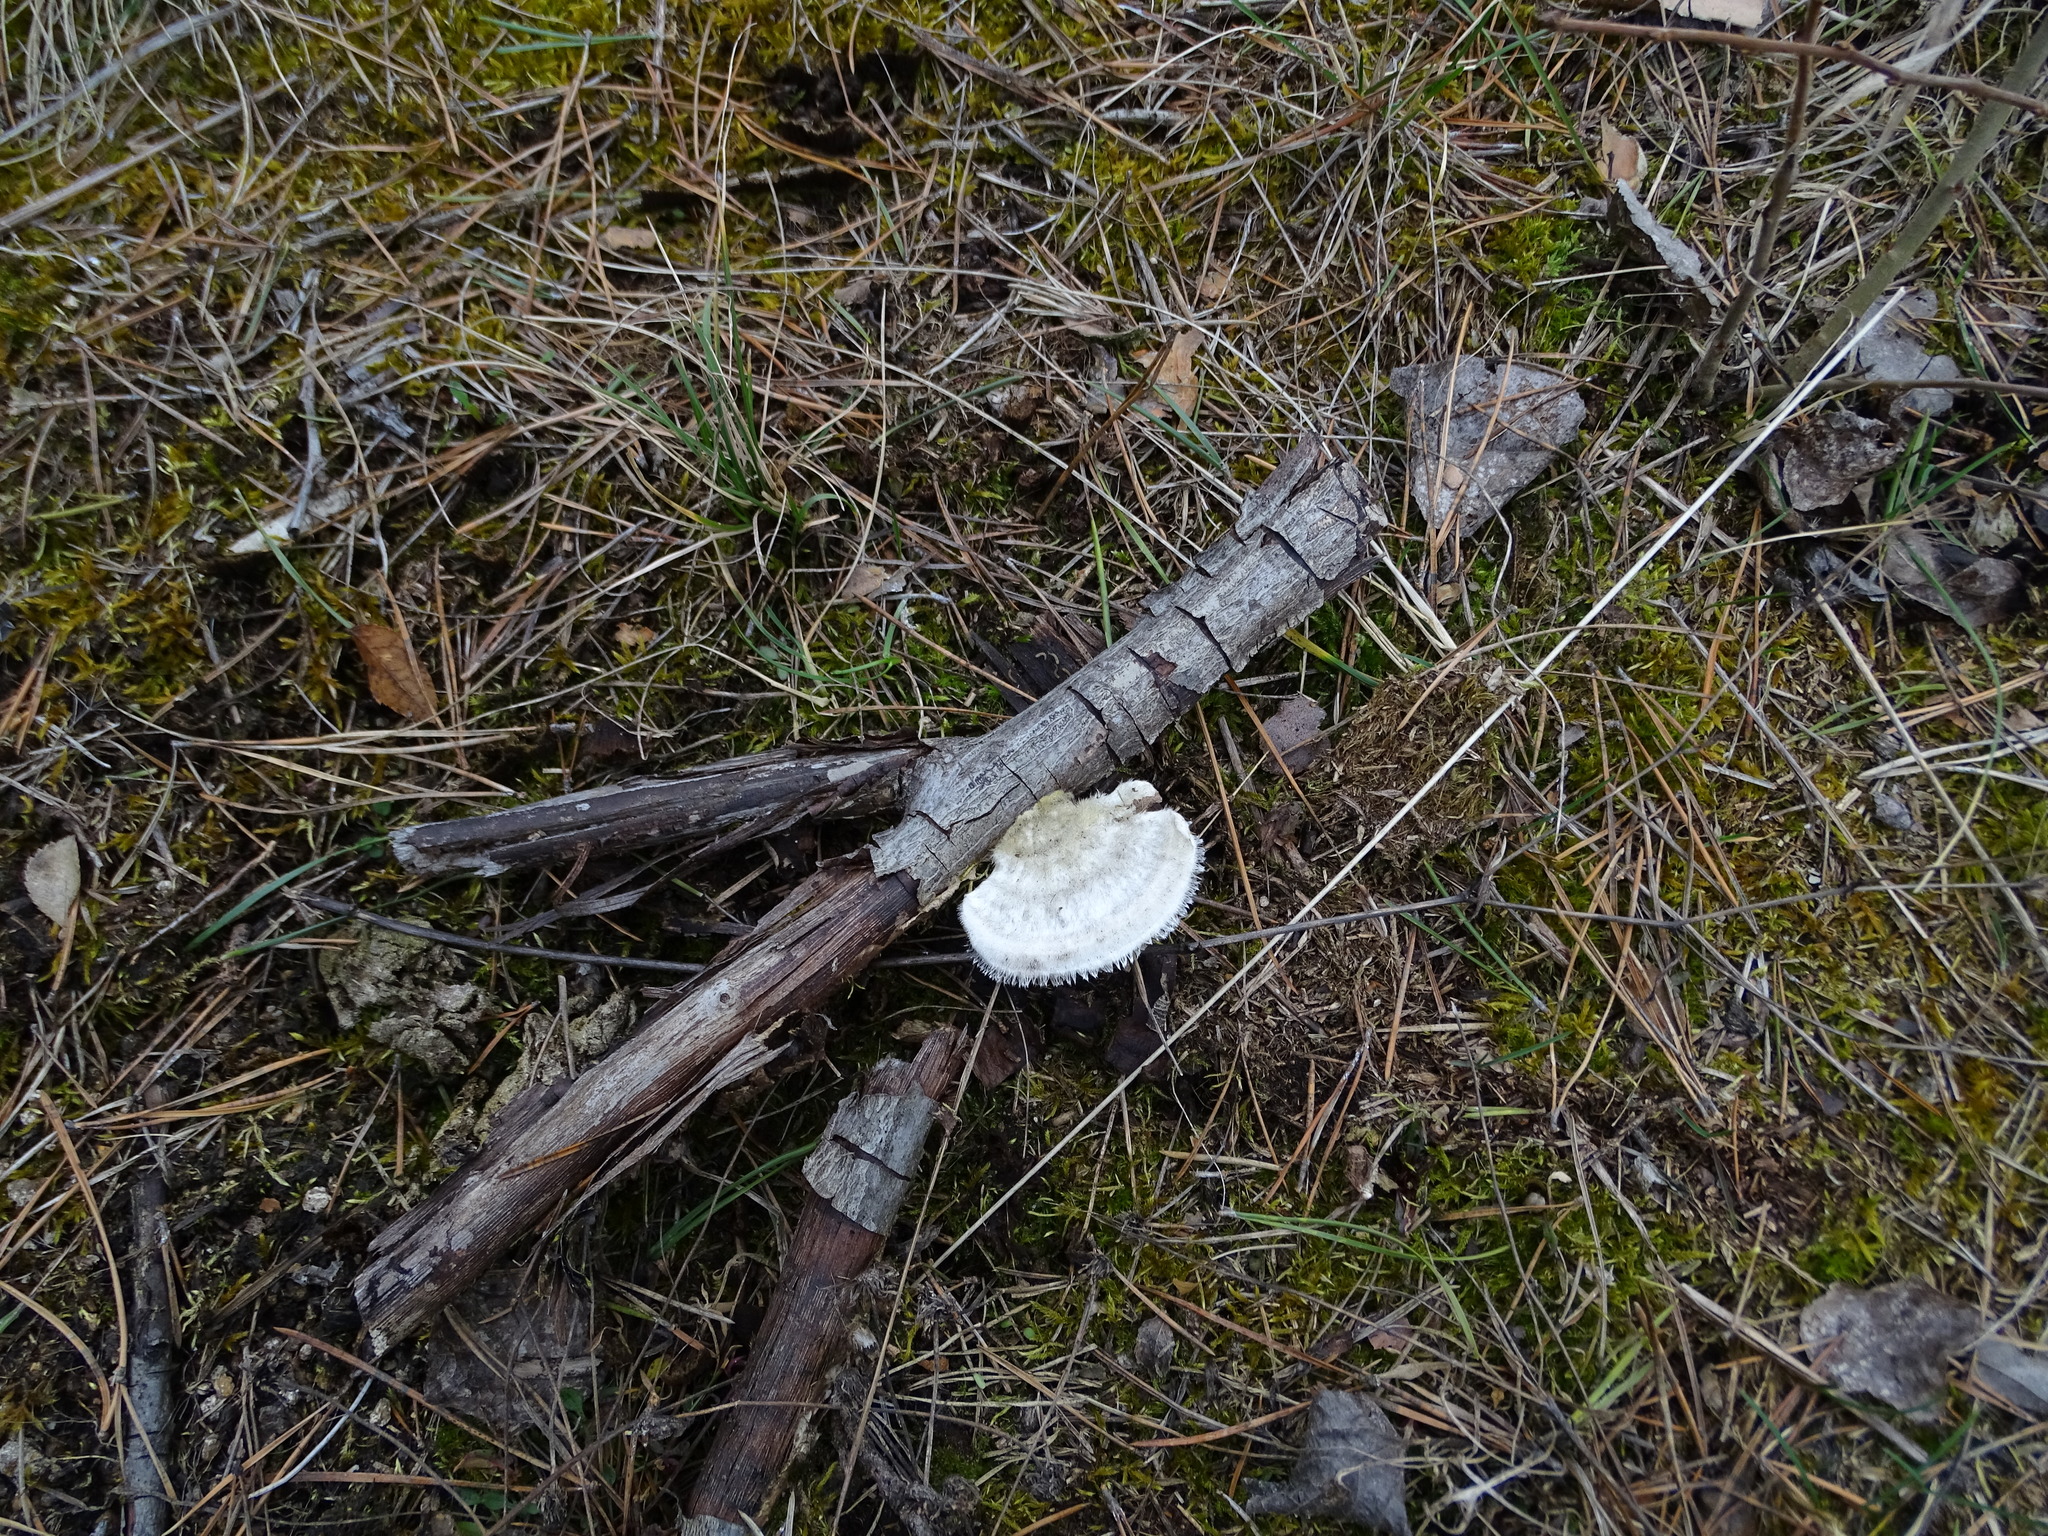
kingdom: Fungi
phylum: Basidiomycota
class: Agaricomycetes
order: Polyporales
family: Polyporaceae
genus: Trametes
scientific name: Trametes hirsuta
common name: Hairy bracket
